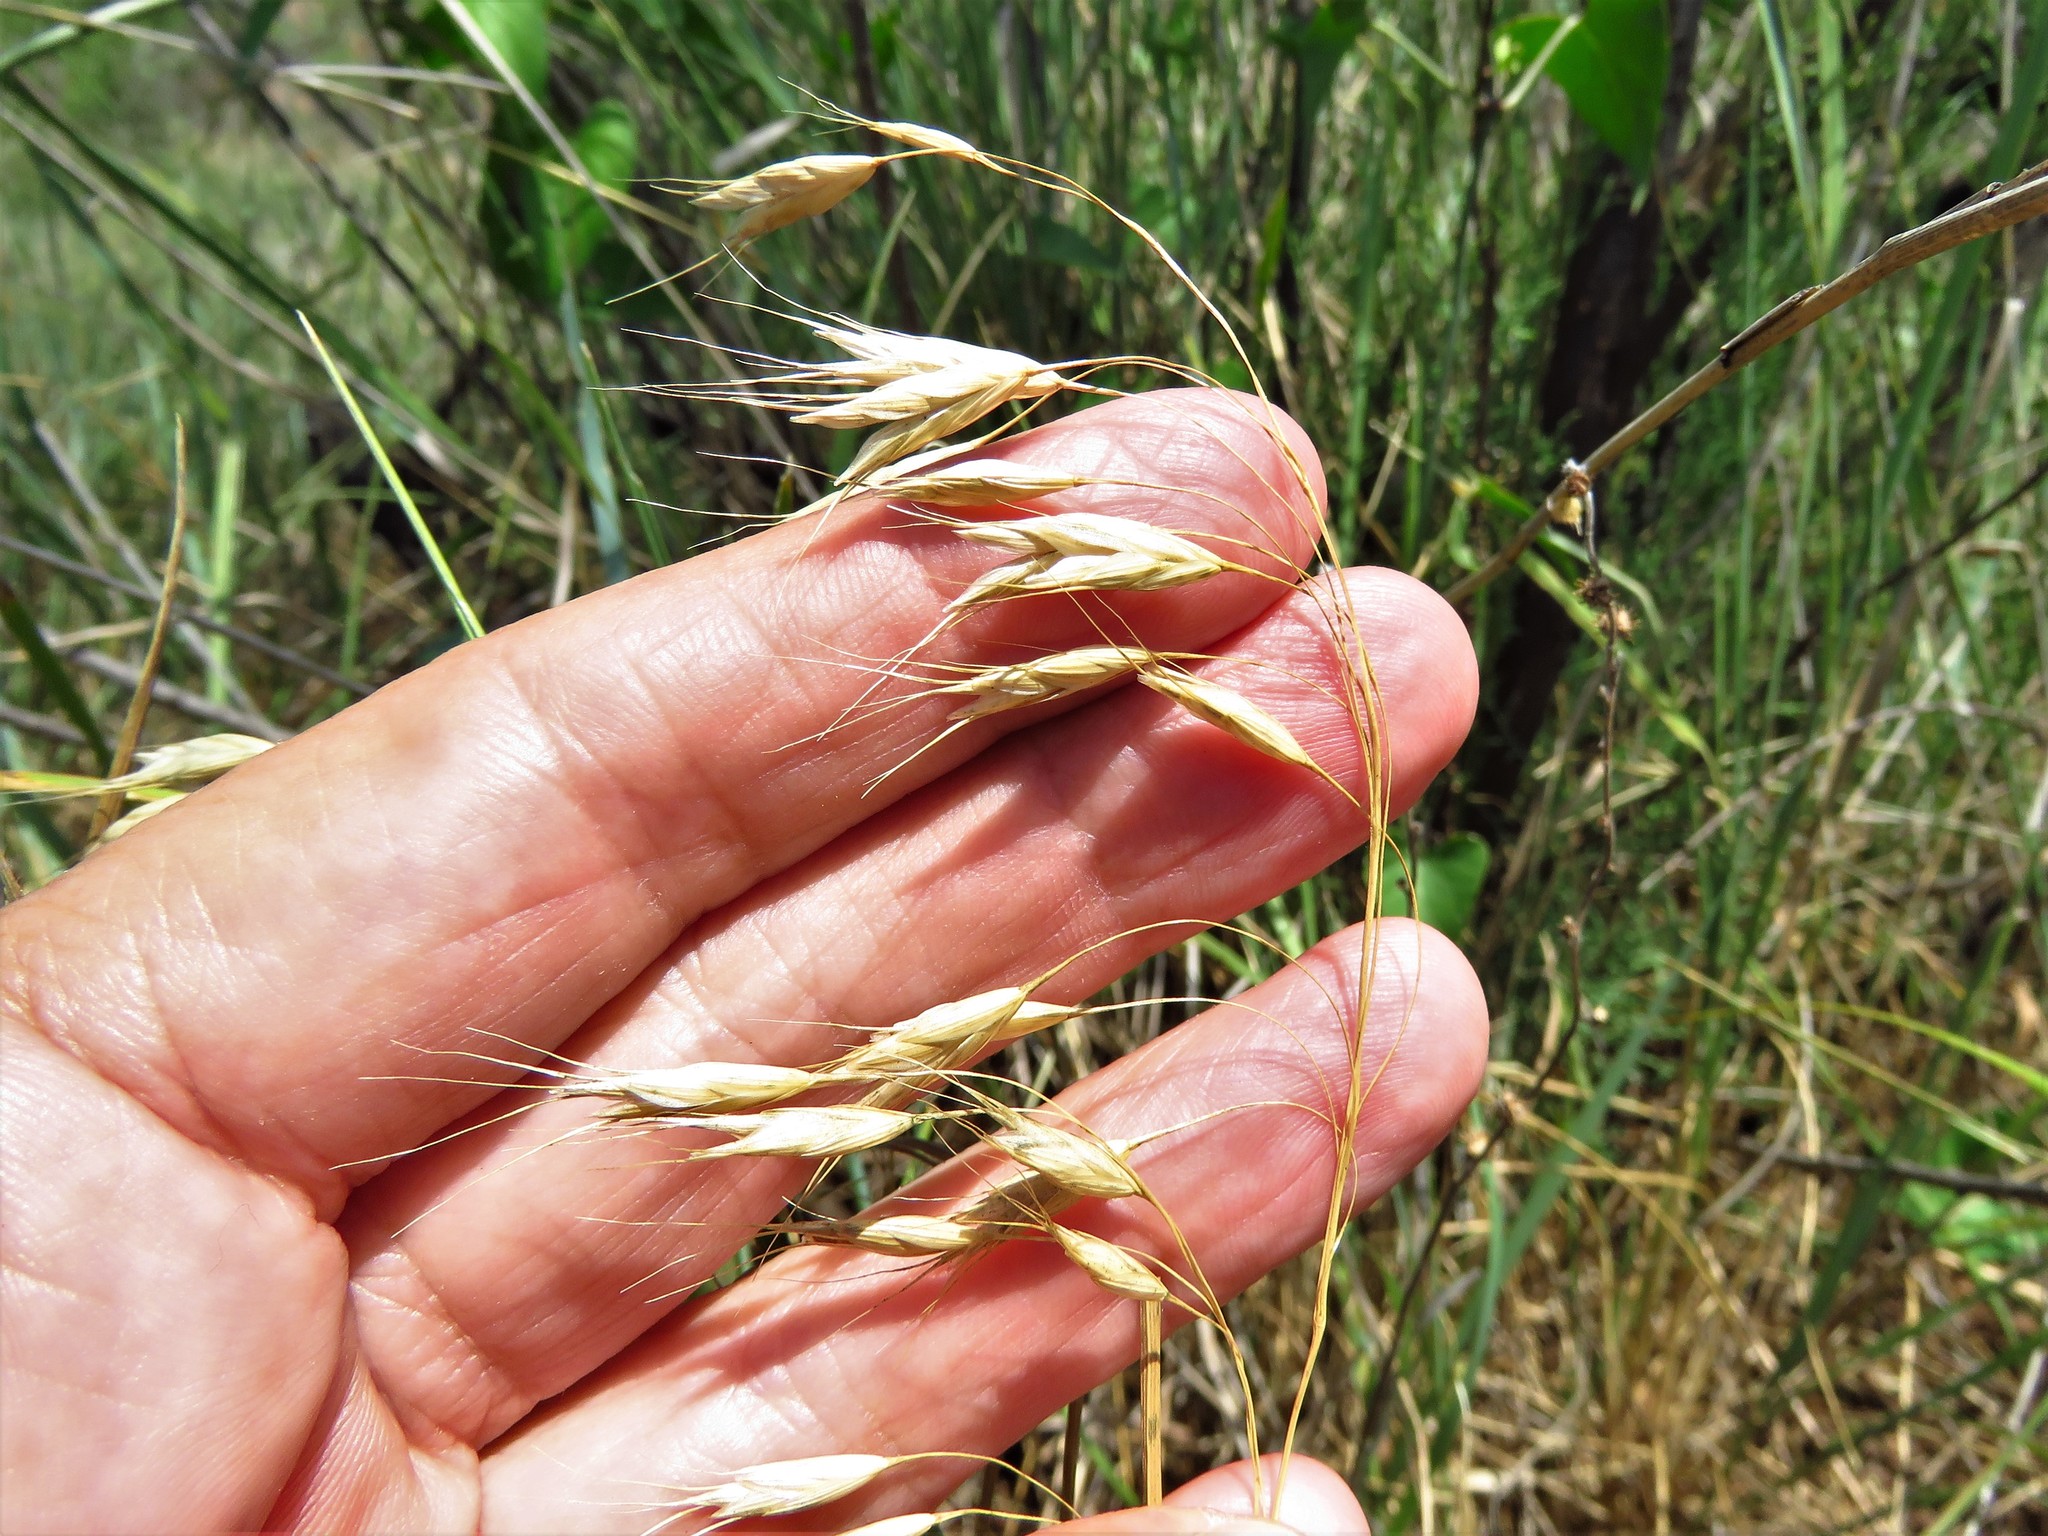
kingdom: Plantae
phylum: Tracheophyta
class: Liliopsida
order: Poales
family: Poaceae
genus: Bromus
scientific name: Bromus japonicus
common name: Japanese brome
